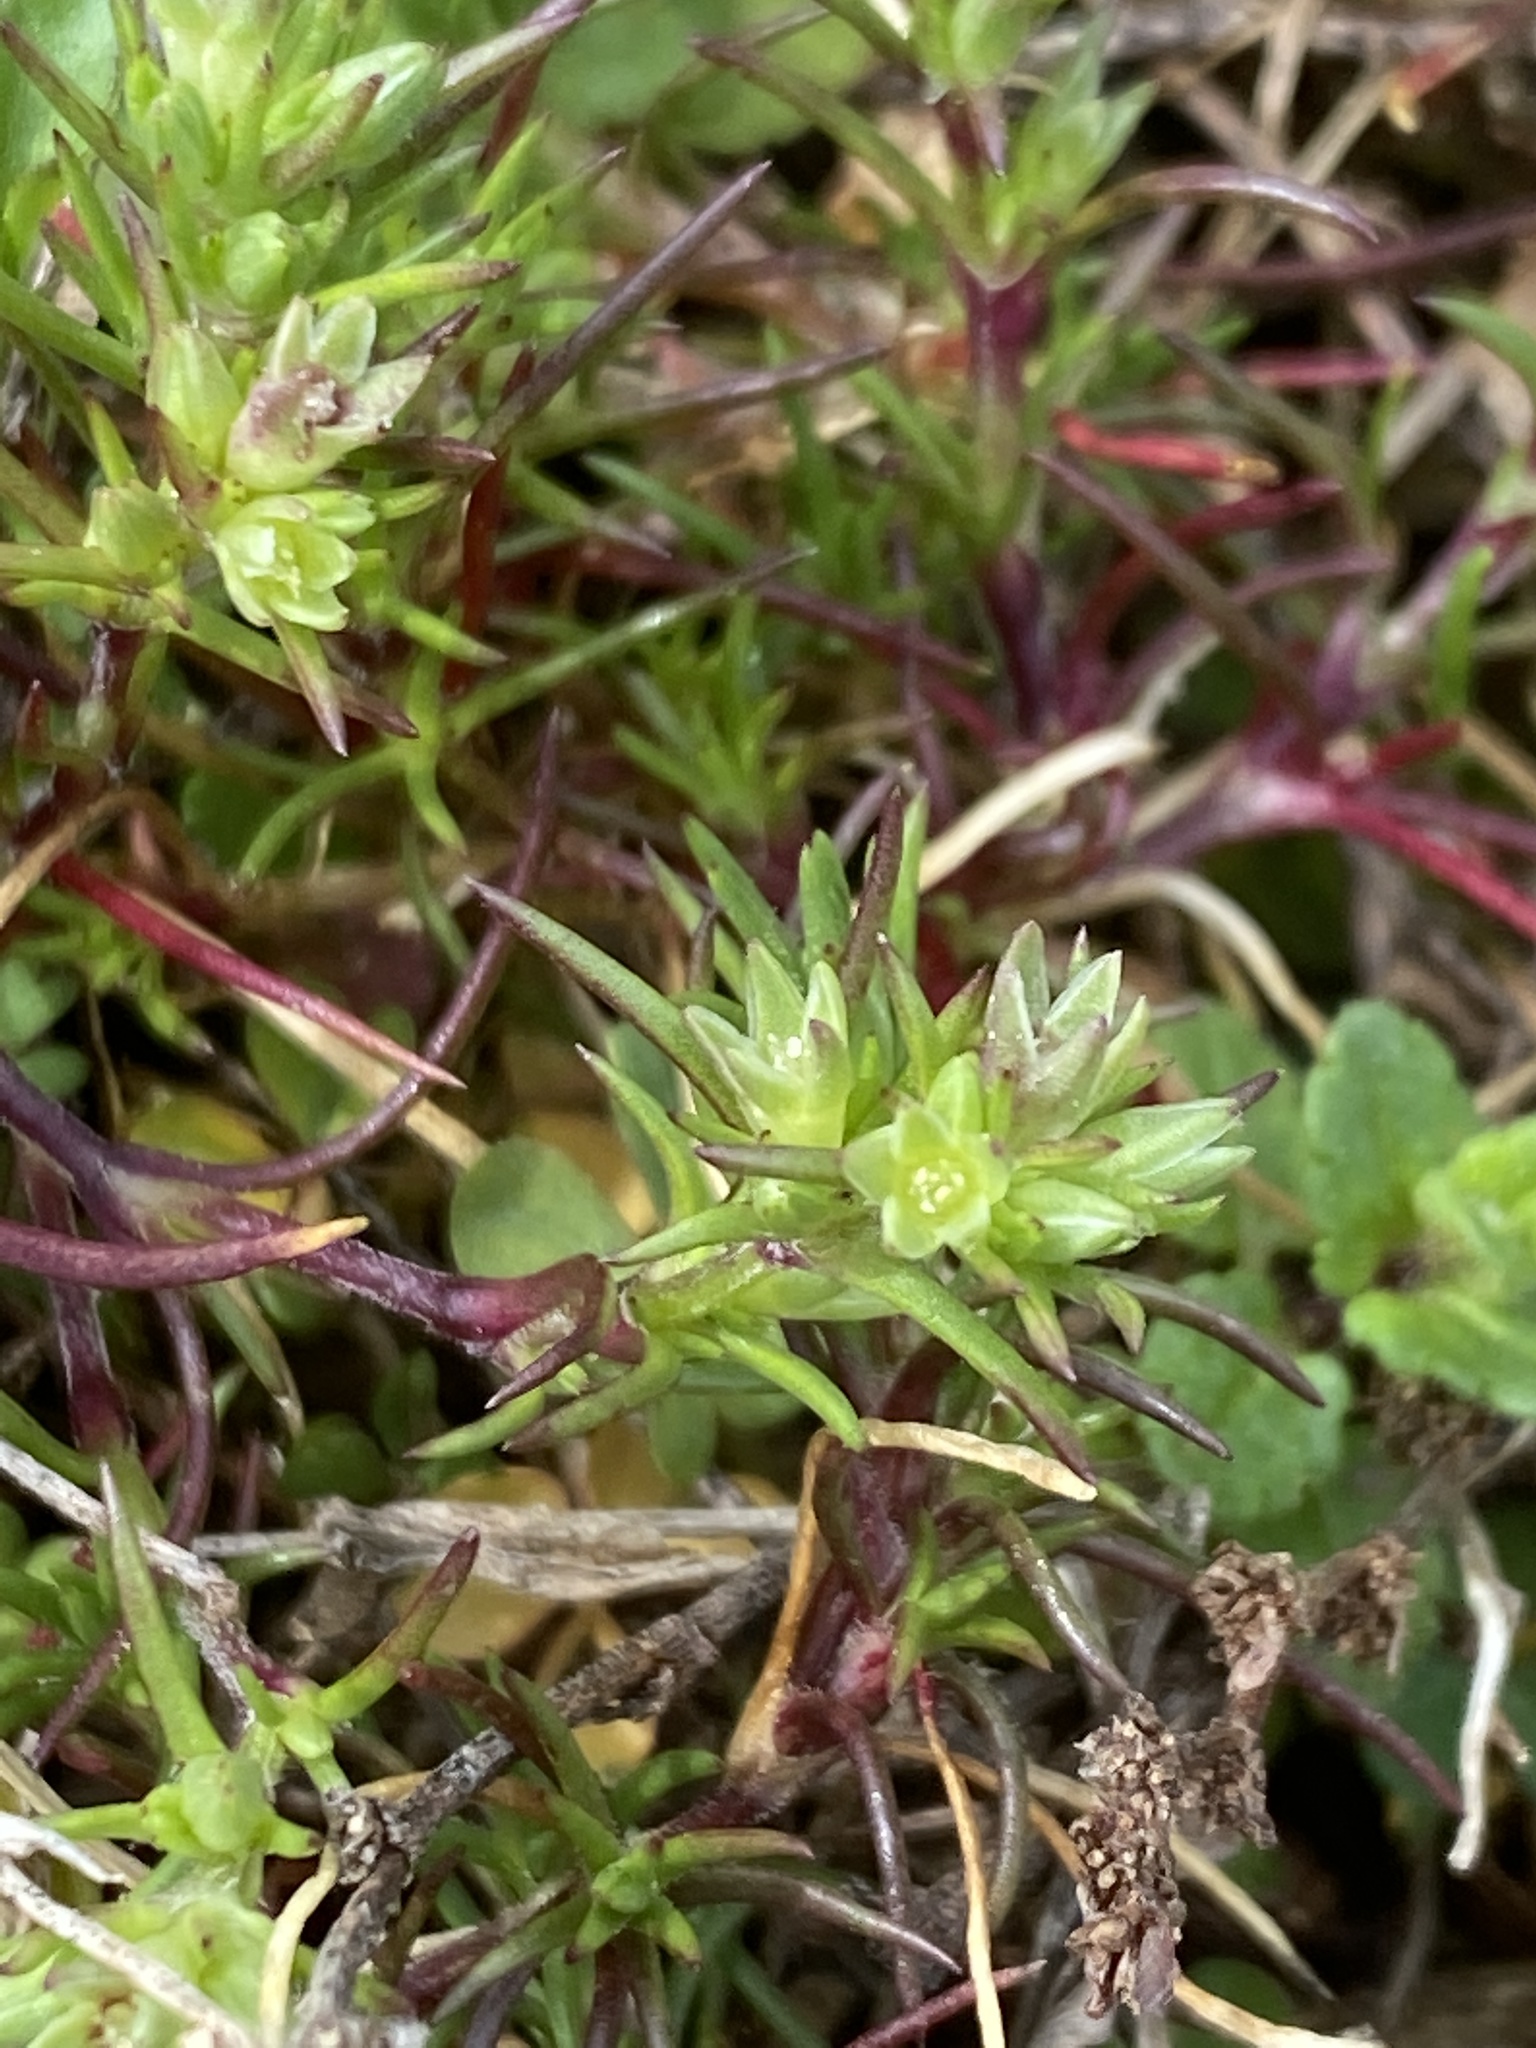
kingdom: Plantae
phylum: Tracheophyta
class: Magnoliopsida
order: Caryophyllales
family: Caryophyllaceae
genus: Scleranthus
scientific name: Scleranthus annuus
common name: Annual knawel
